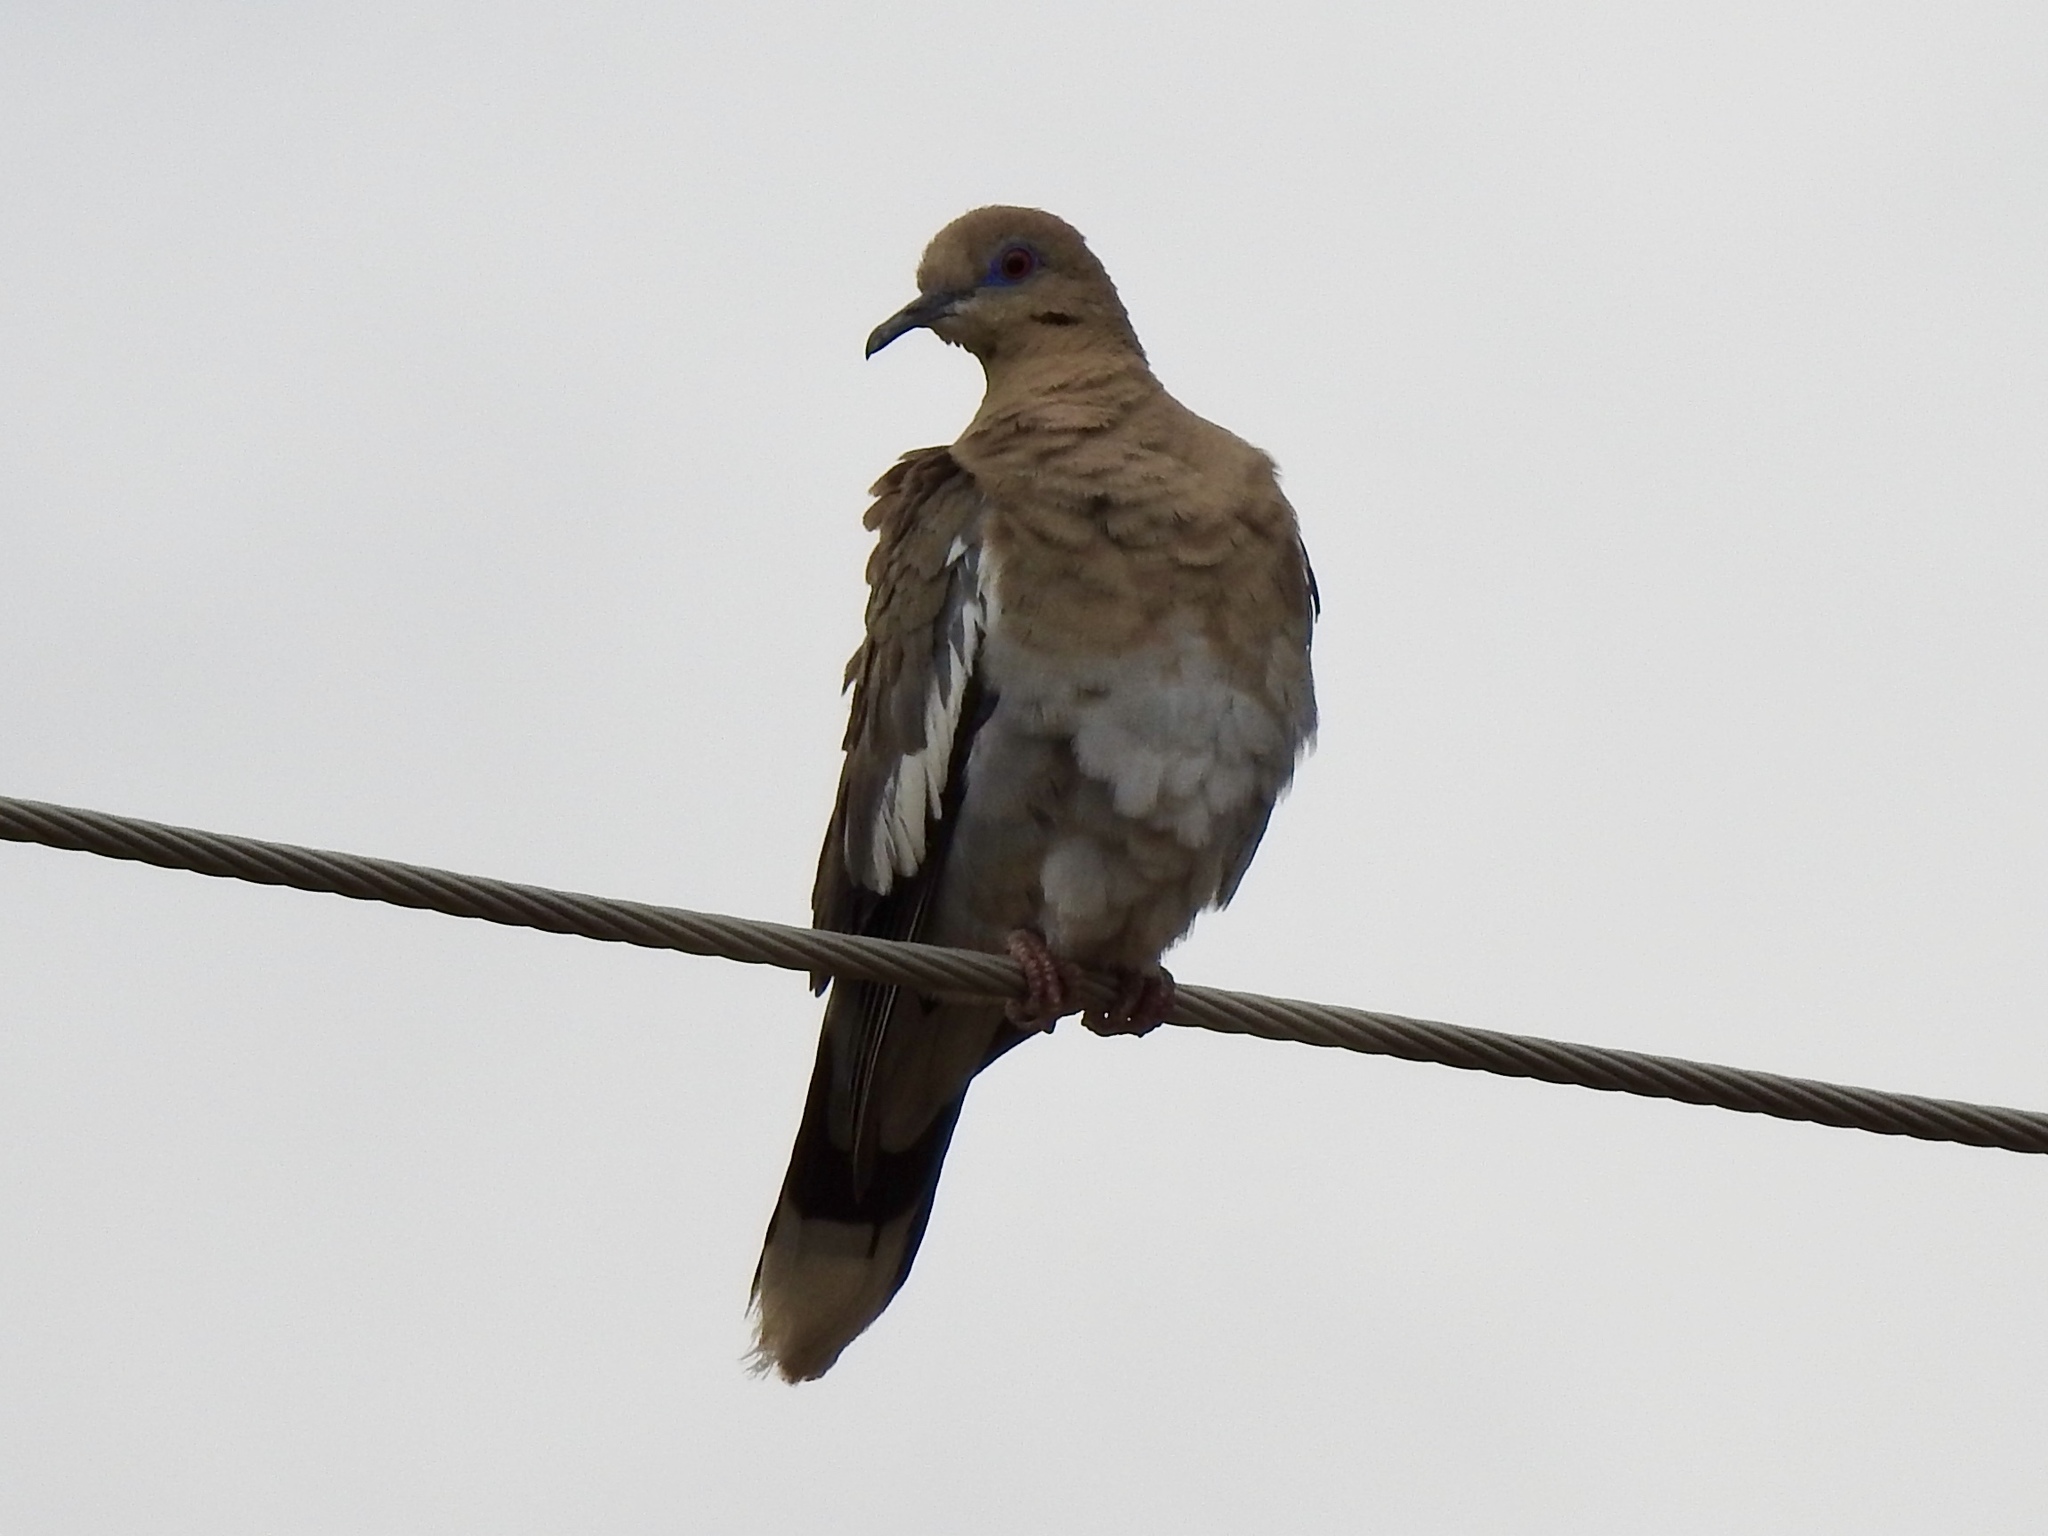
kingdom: Animalia
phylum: Chordata
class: Aves
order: Columbiformes
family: Columbidae
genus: Zenaida
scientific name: Zenaida asiatica
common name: White-winged dove
